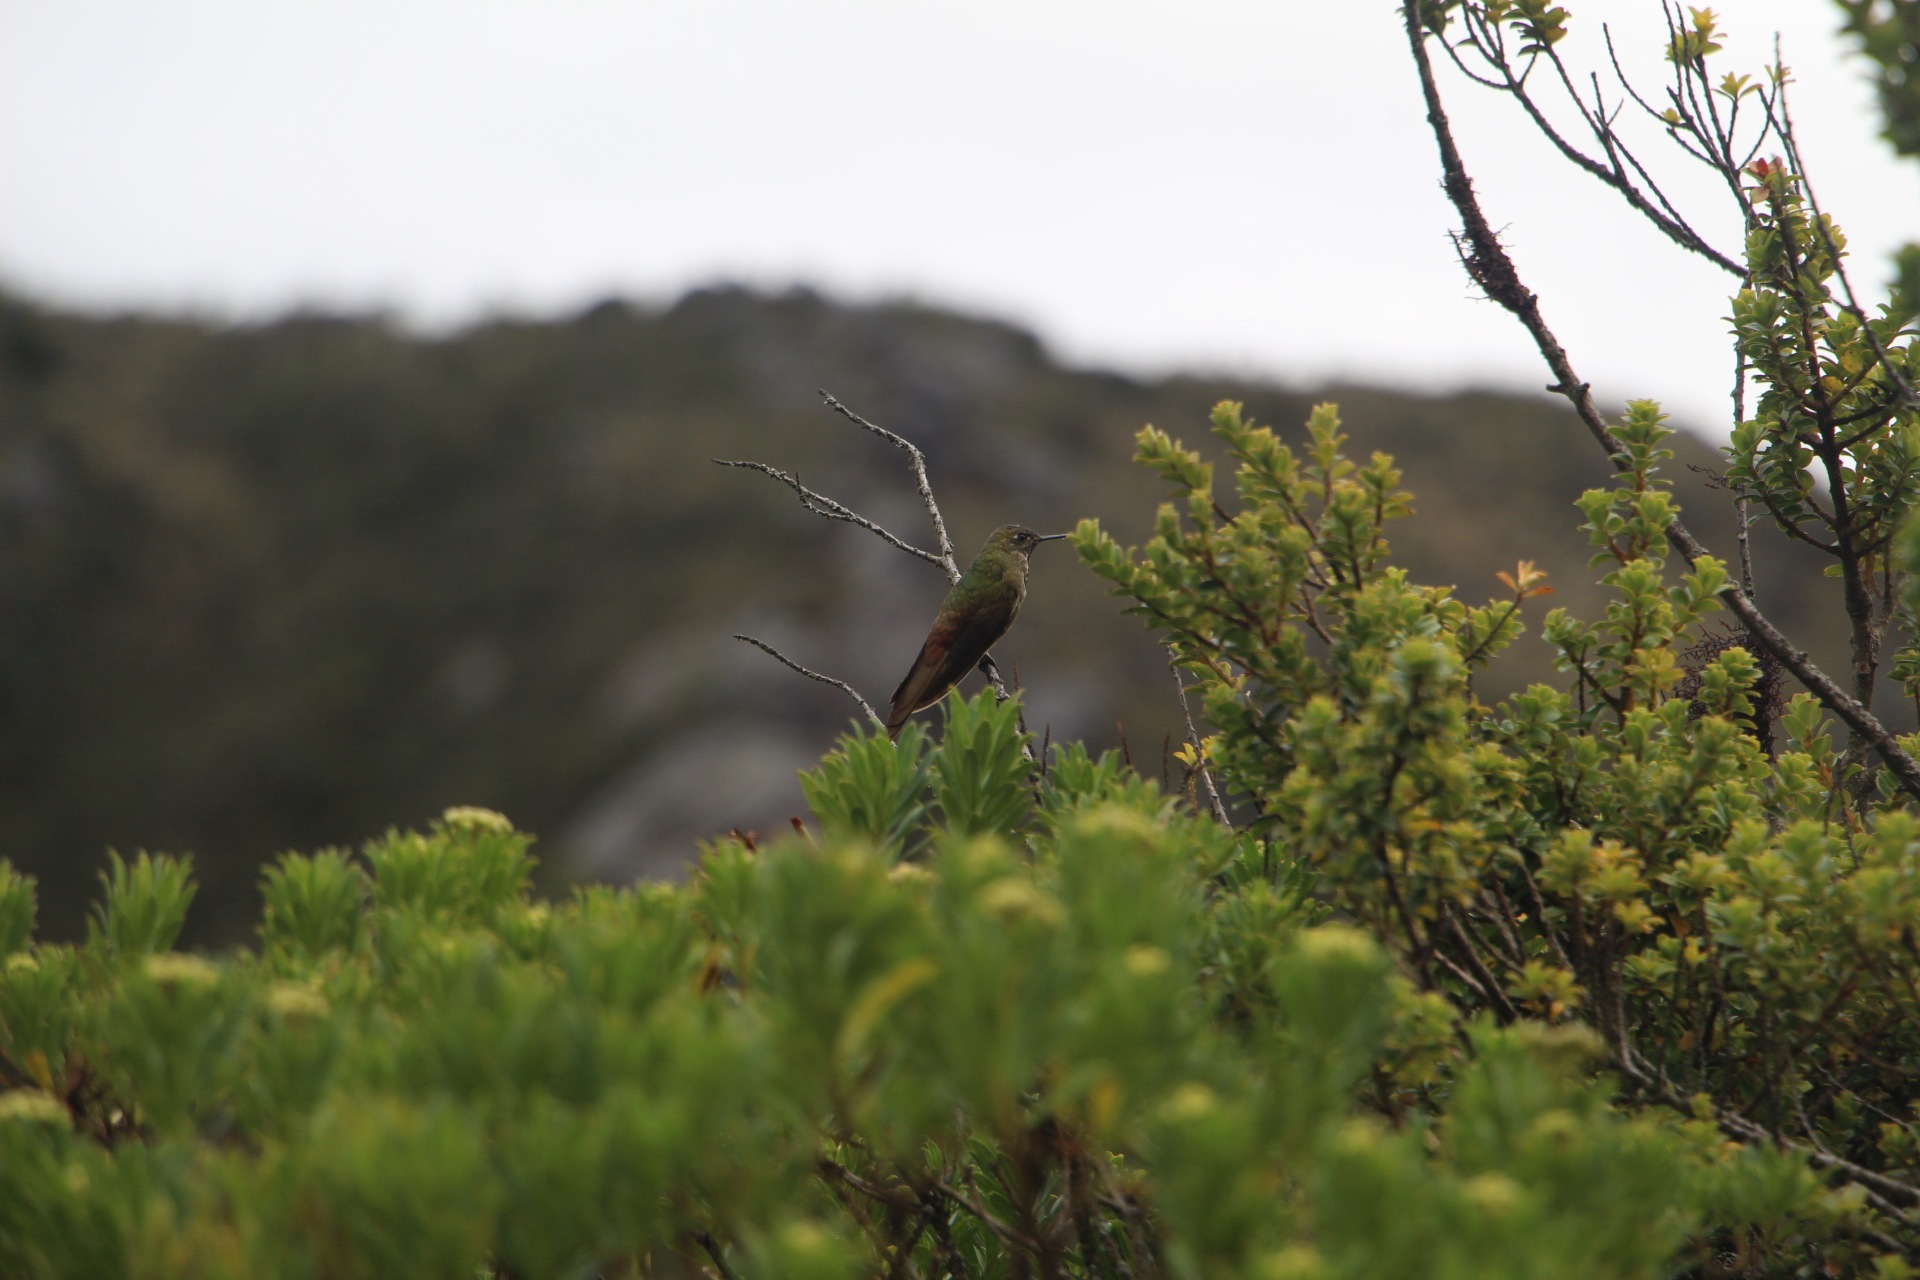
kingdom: Animalia
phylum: Chordata
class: Aves
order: Apodiformes
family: Trochilidae
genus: Chalcostigma
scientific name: Chalcostigma heteropogon
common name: Bronze-tailed thornbill
